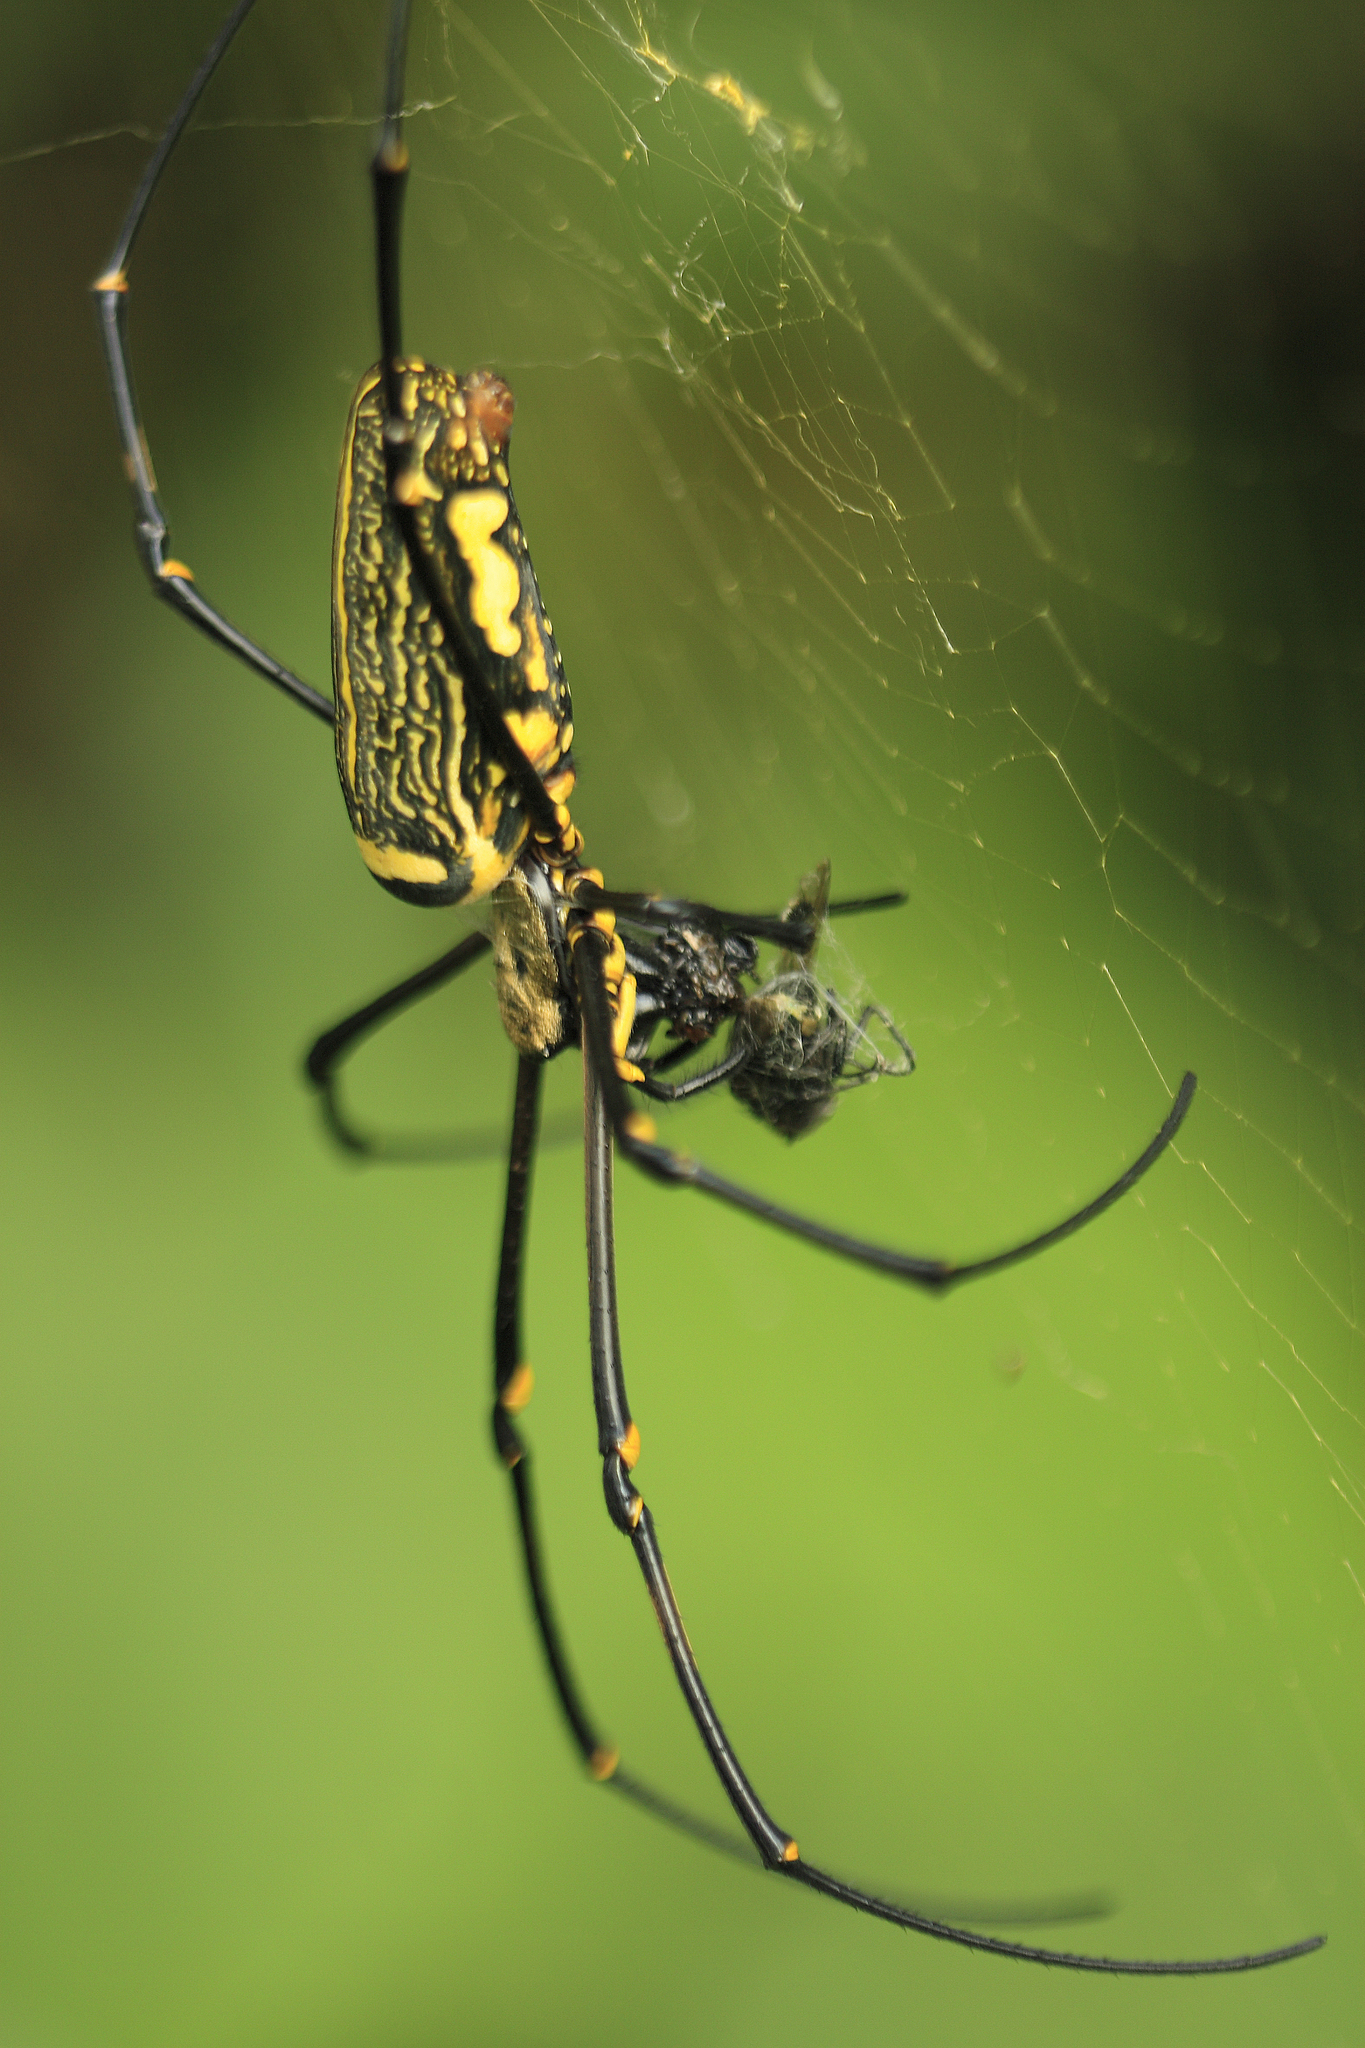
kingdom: Animalia
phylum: Arthropoda
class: Arachnida
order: Araneae
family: Araneidae
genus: Nephila
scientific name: Nephila pilipes
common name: Giant golden orb weaver
